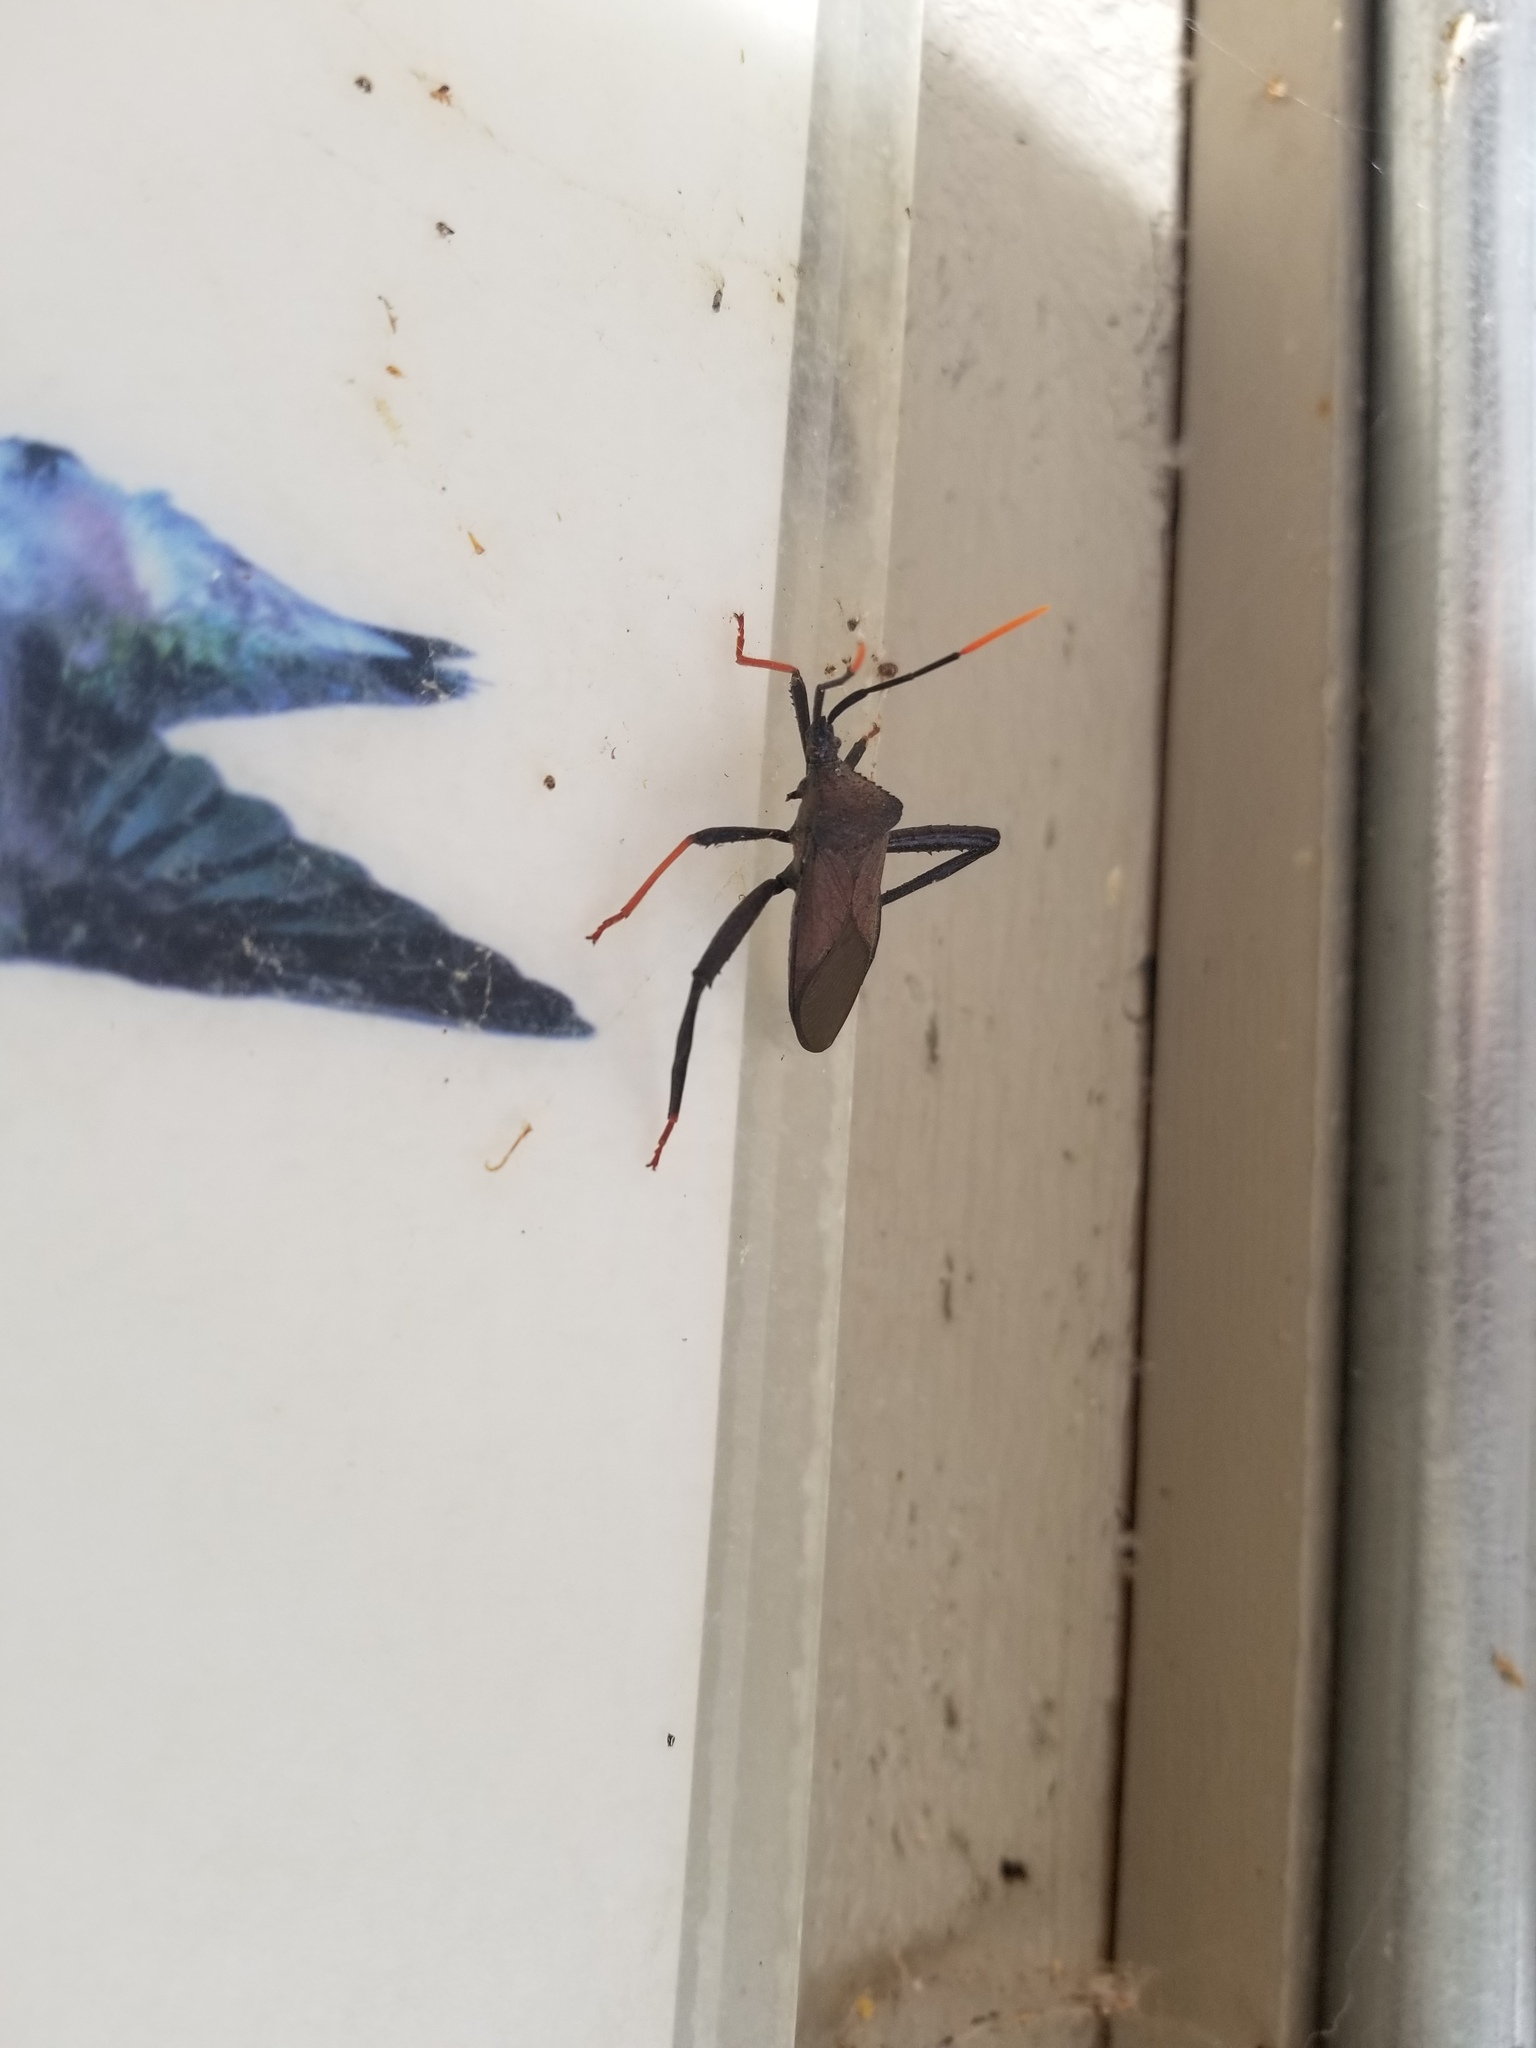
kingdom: Animalia
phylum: Arthropoda
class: Insecta
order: Hemiptera
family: Coreidae
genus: Acanthocephala
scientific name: Acanthocephala thomasi
